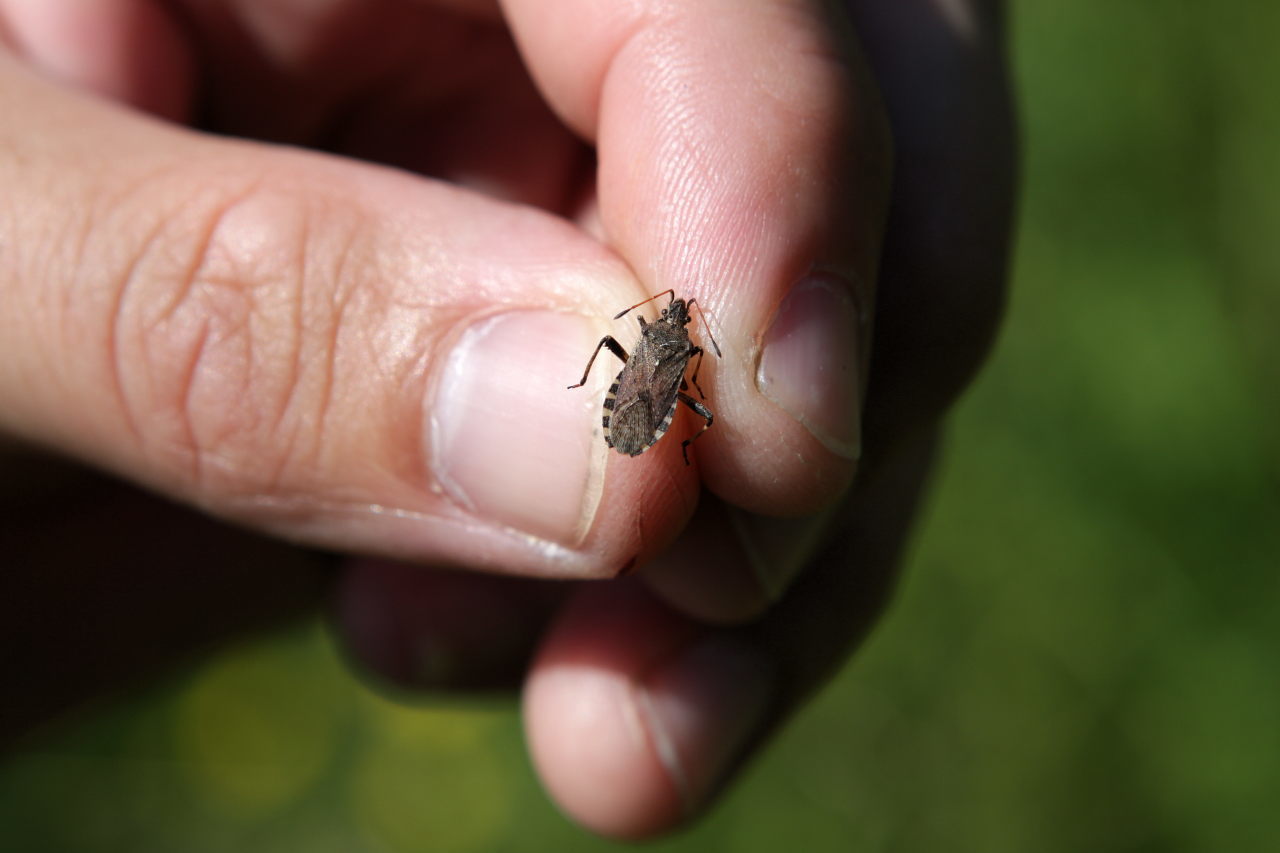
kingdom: Animalia
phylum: Arthropoda
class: Insecta
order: Hemiptera
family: Coreidae
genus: Ceraleptus
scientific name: Ceraleptus gracilicornis
